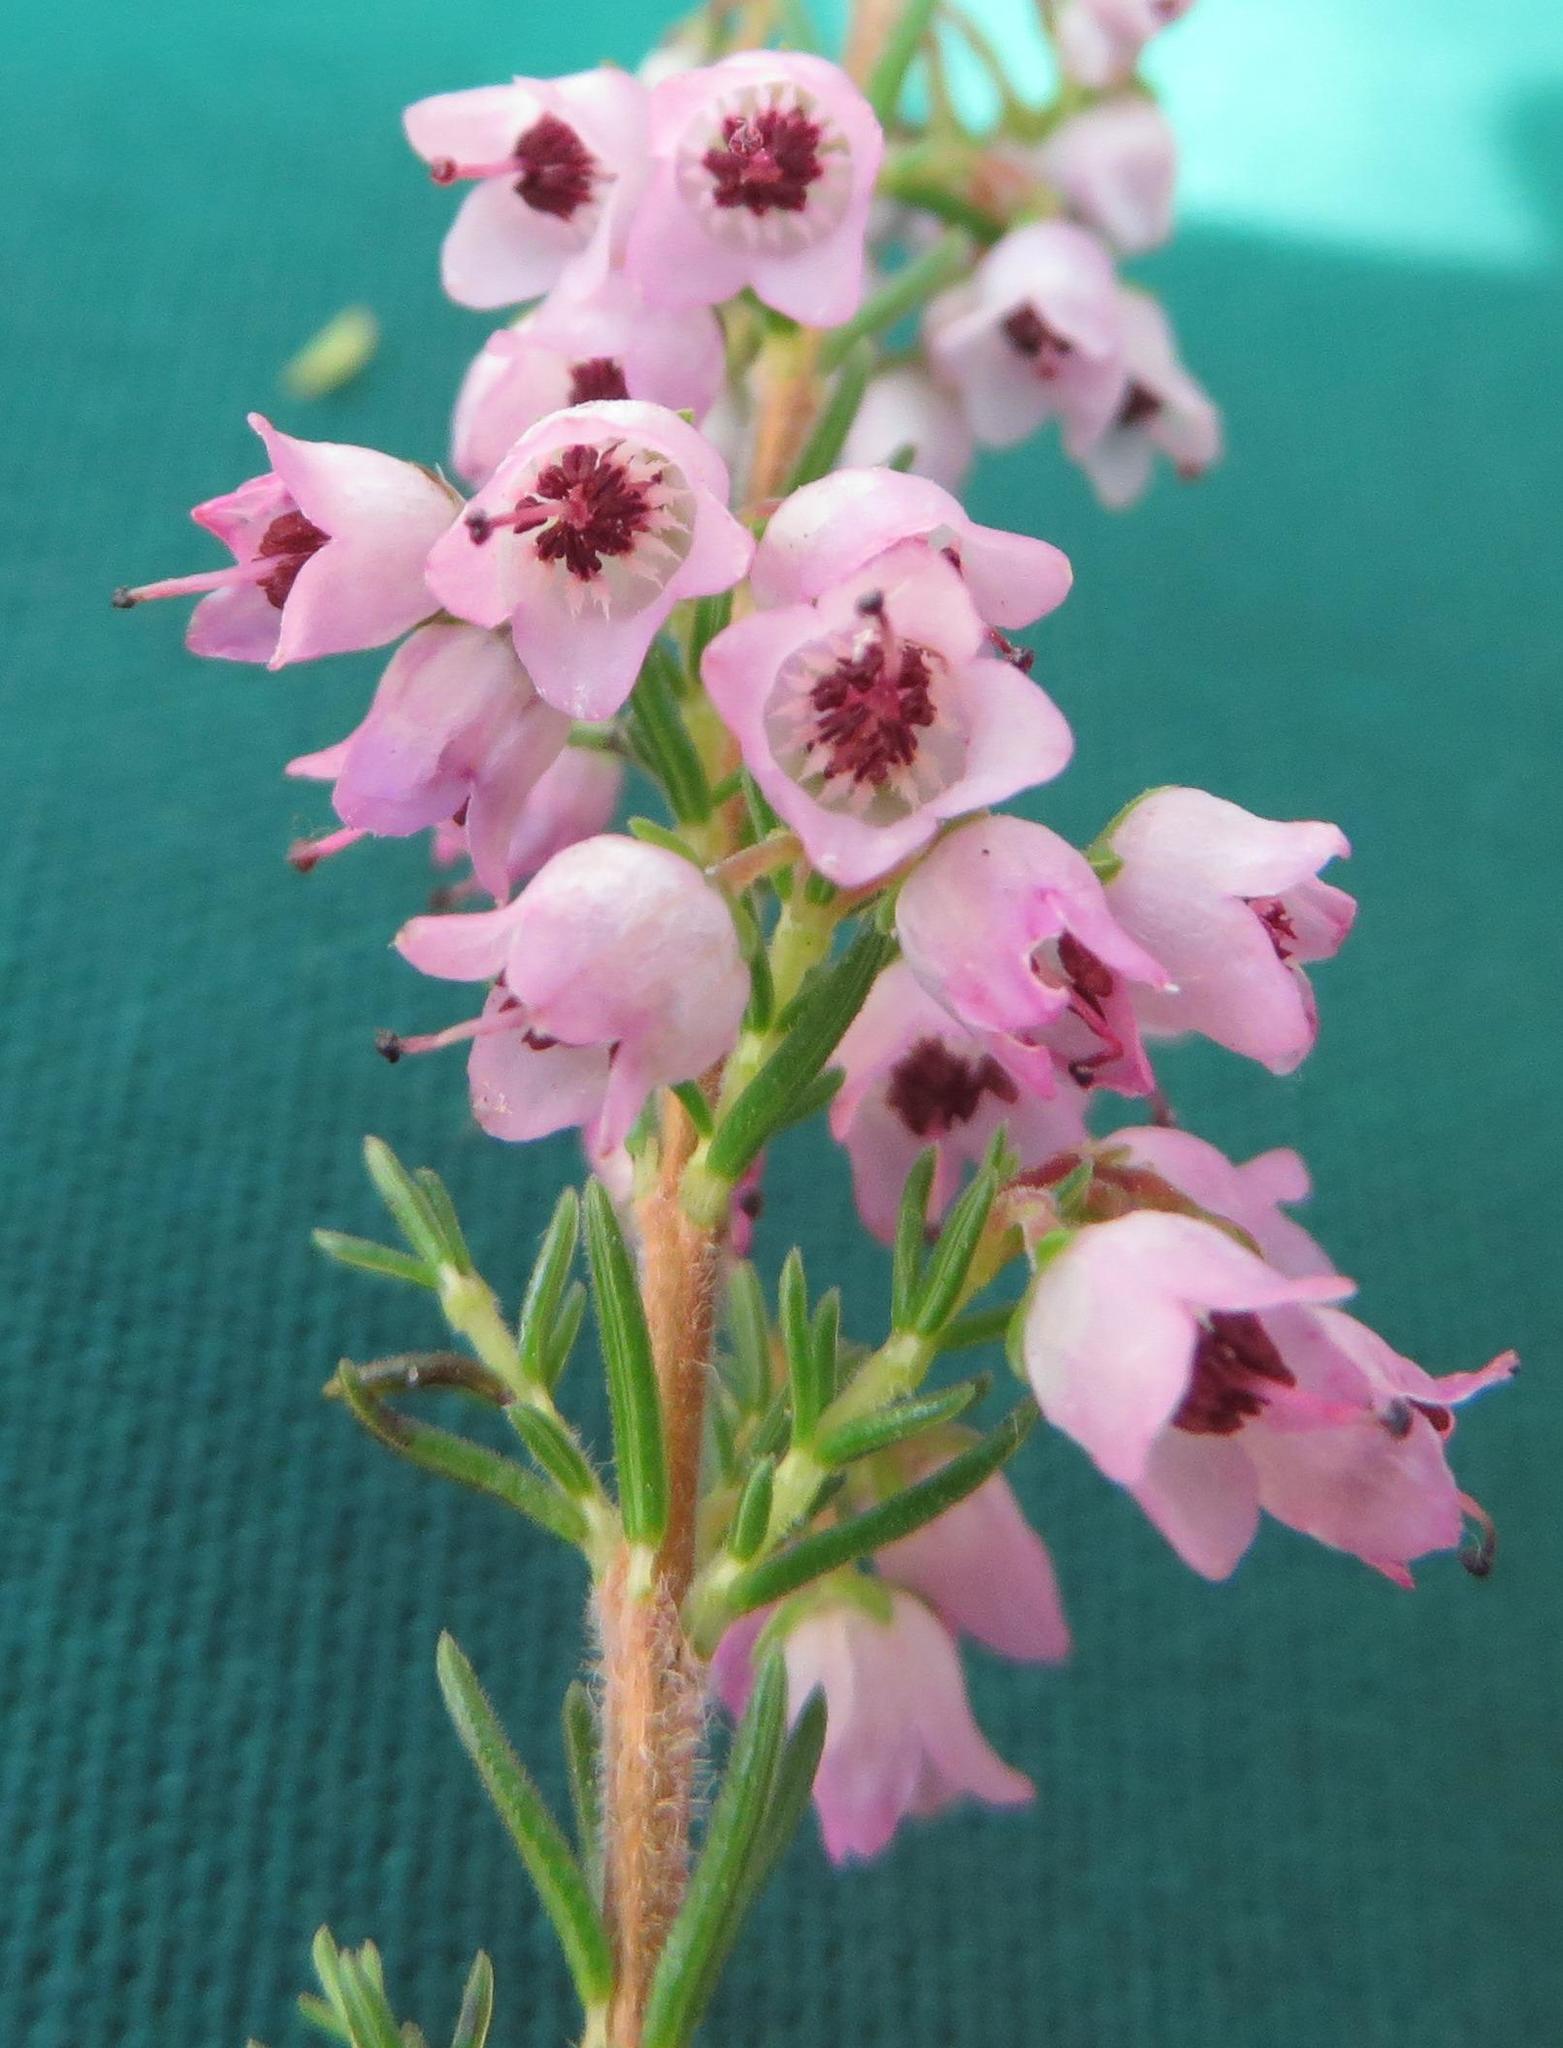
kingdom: Plantae
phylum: Tracheophyta
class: Magnoliopsida
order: Ericales
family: Ericaceae
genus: Erica
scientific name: Erica curvirostris
